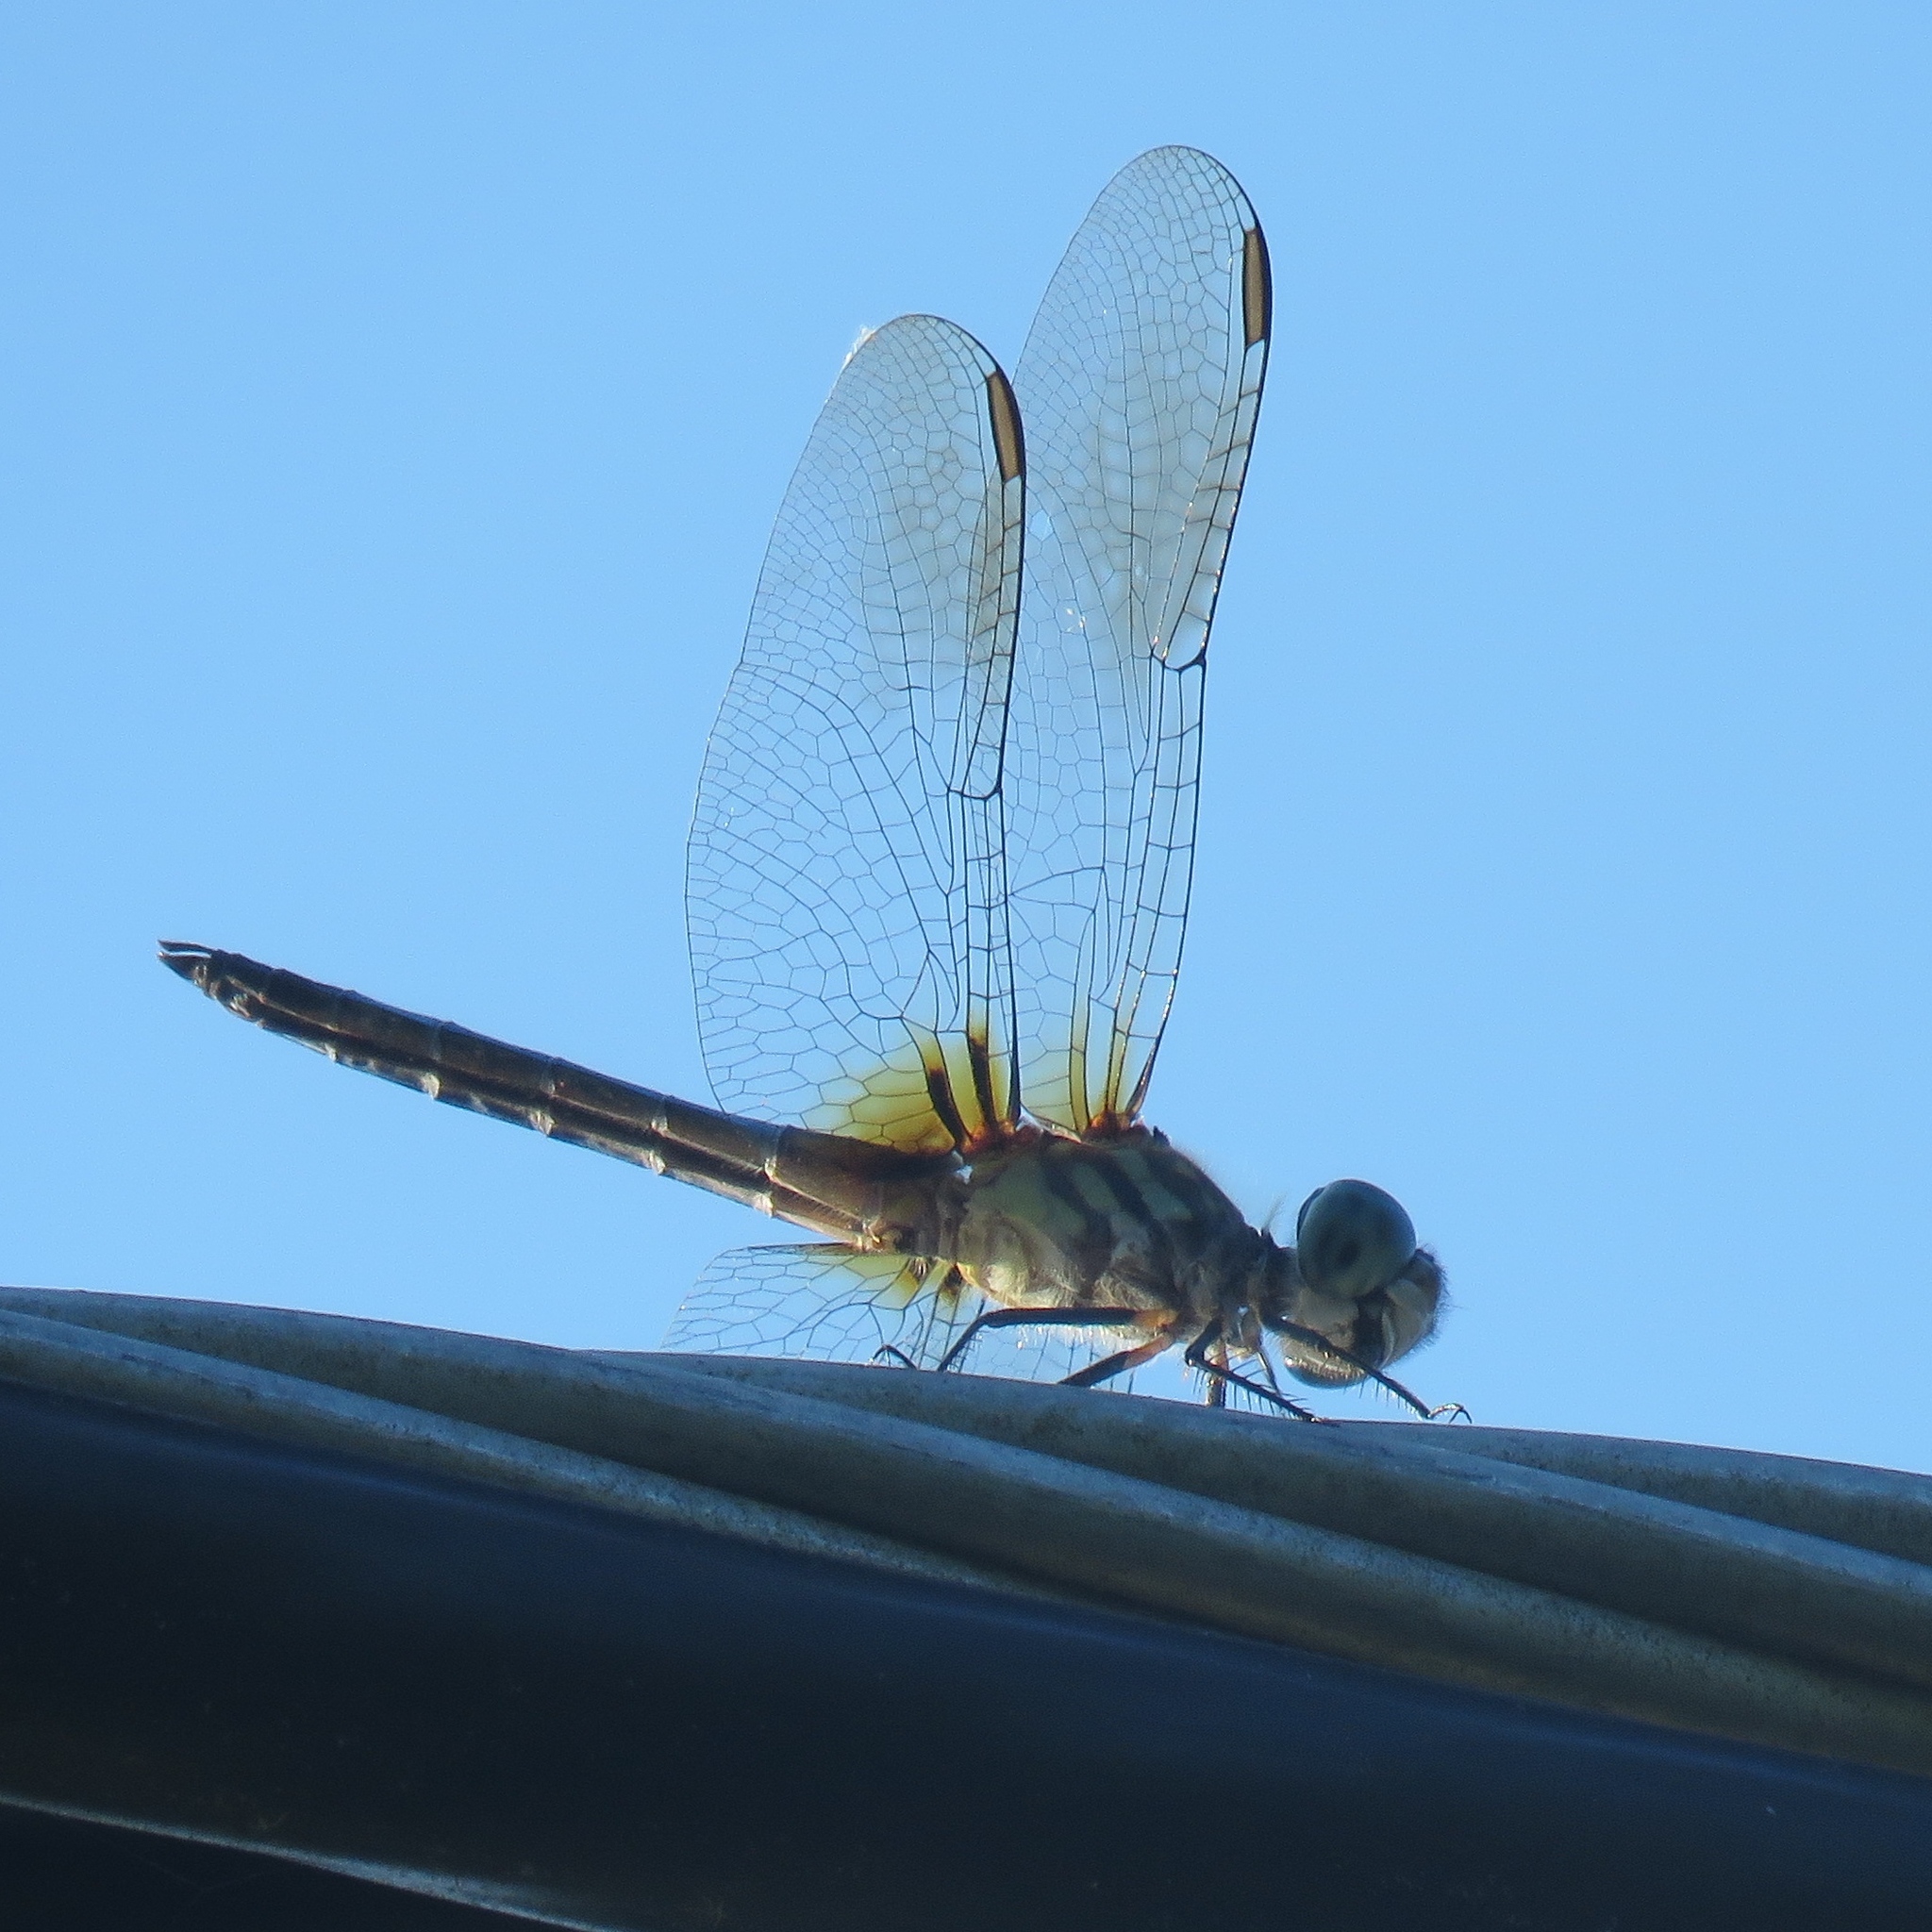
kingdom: Animalia
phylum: Arthropoda
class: Insecta
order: Odonata
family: Libellulidae
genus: Pachydiplax
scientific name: Pachydiplax longipennis
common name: Blue dasher
